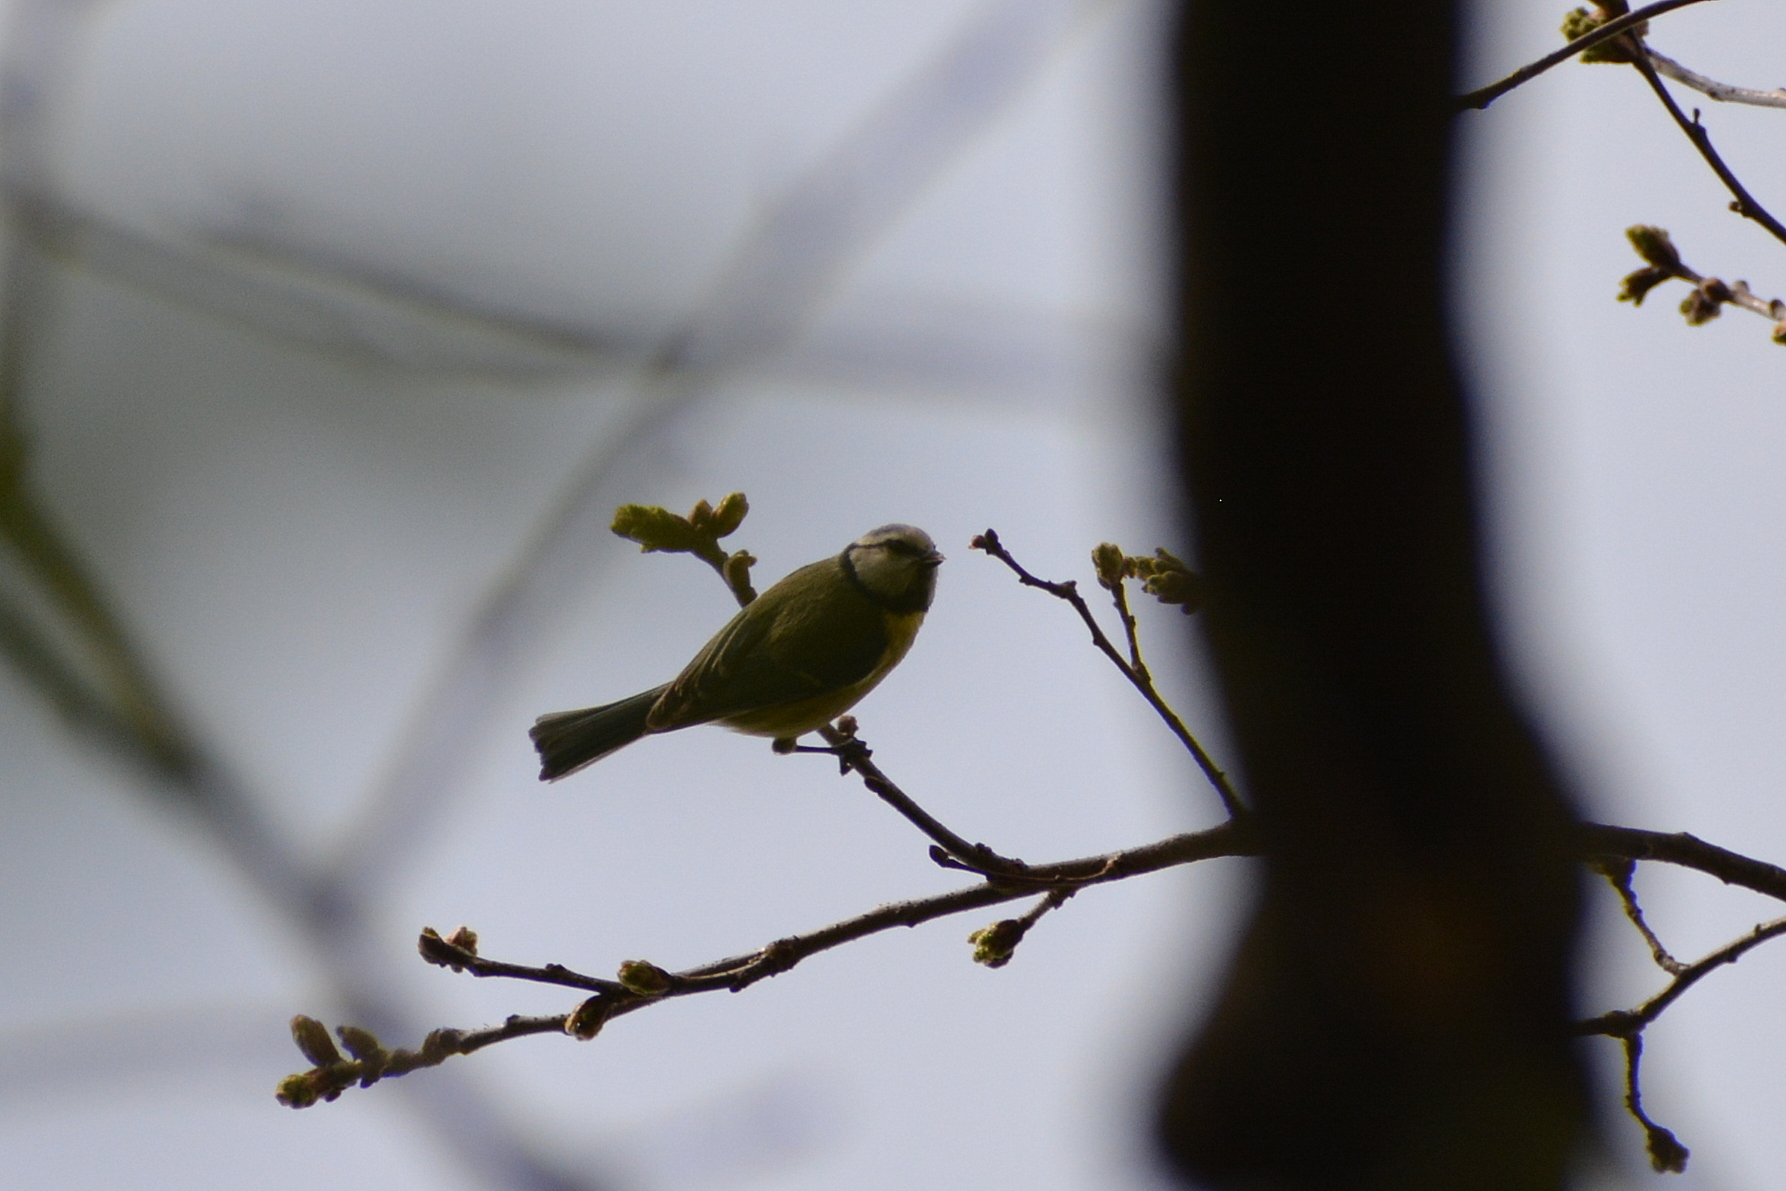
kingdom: Animalia
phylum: Chordata
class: Aves
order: Passeriformes
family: Paridae
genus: Cyanistes
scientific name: Cyanistes caeruleus
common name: Eurasian blue tit
